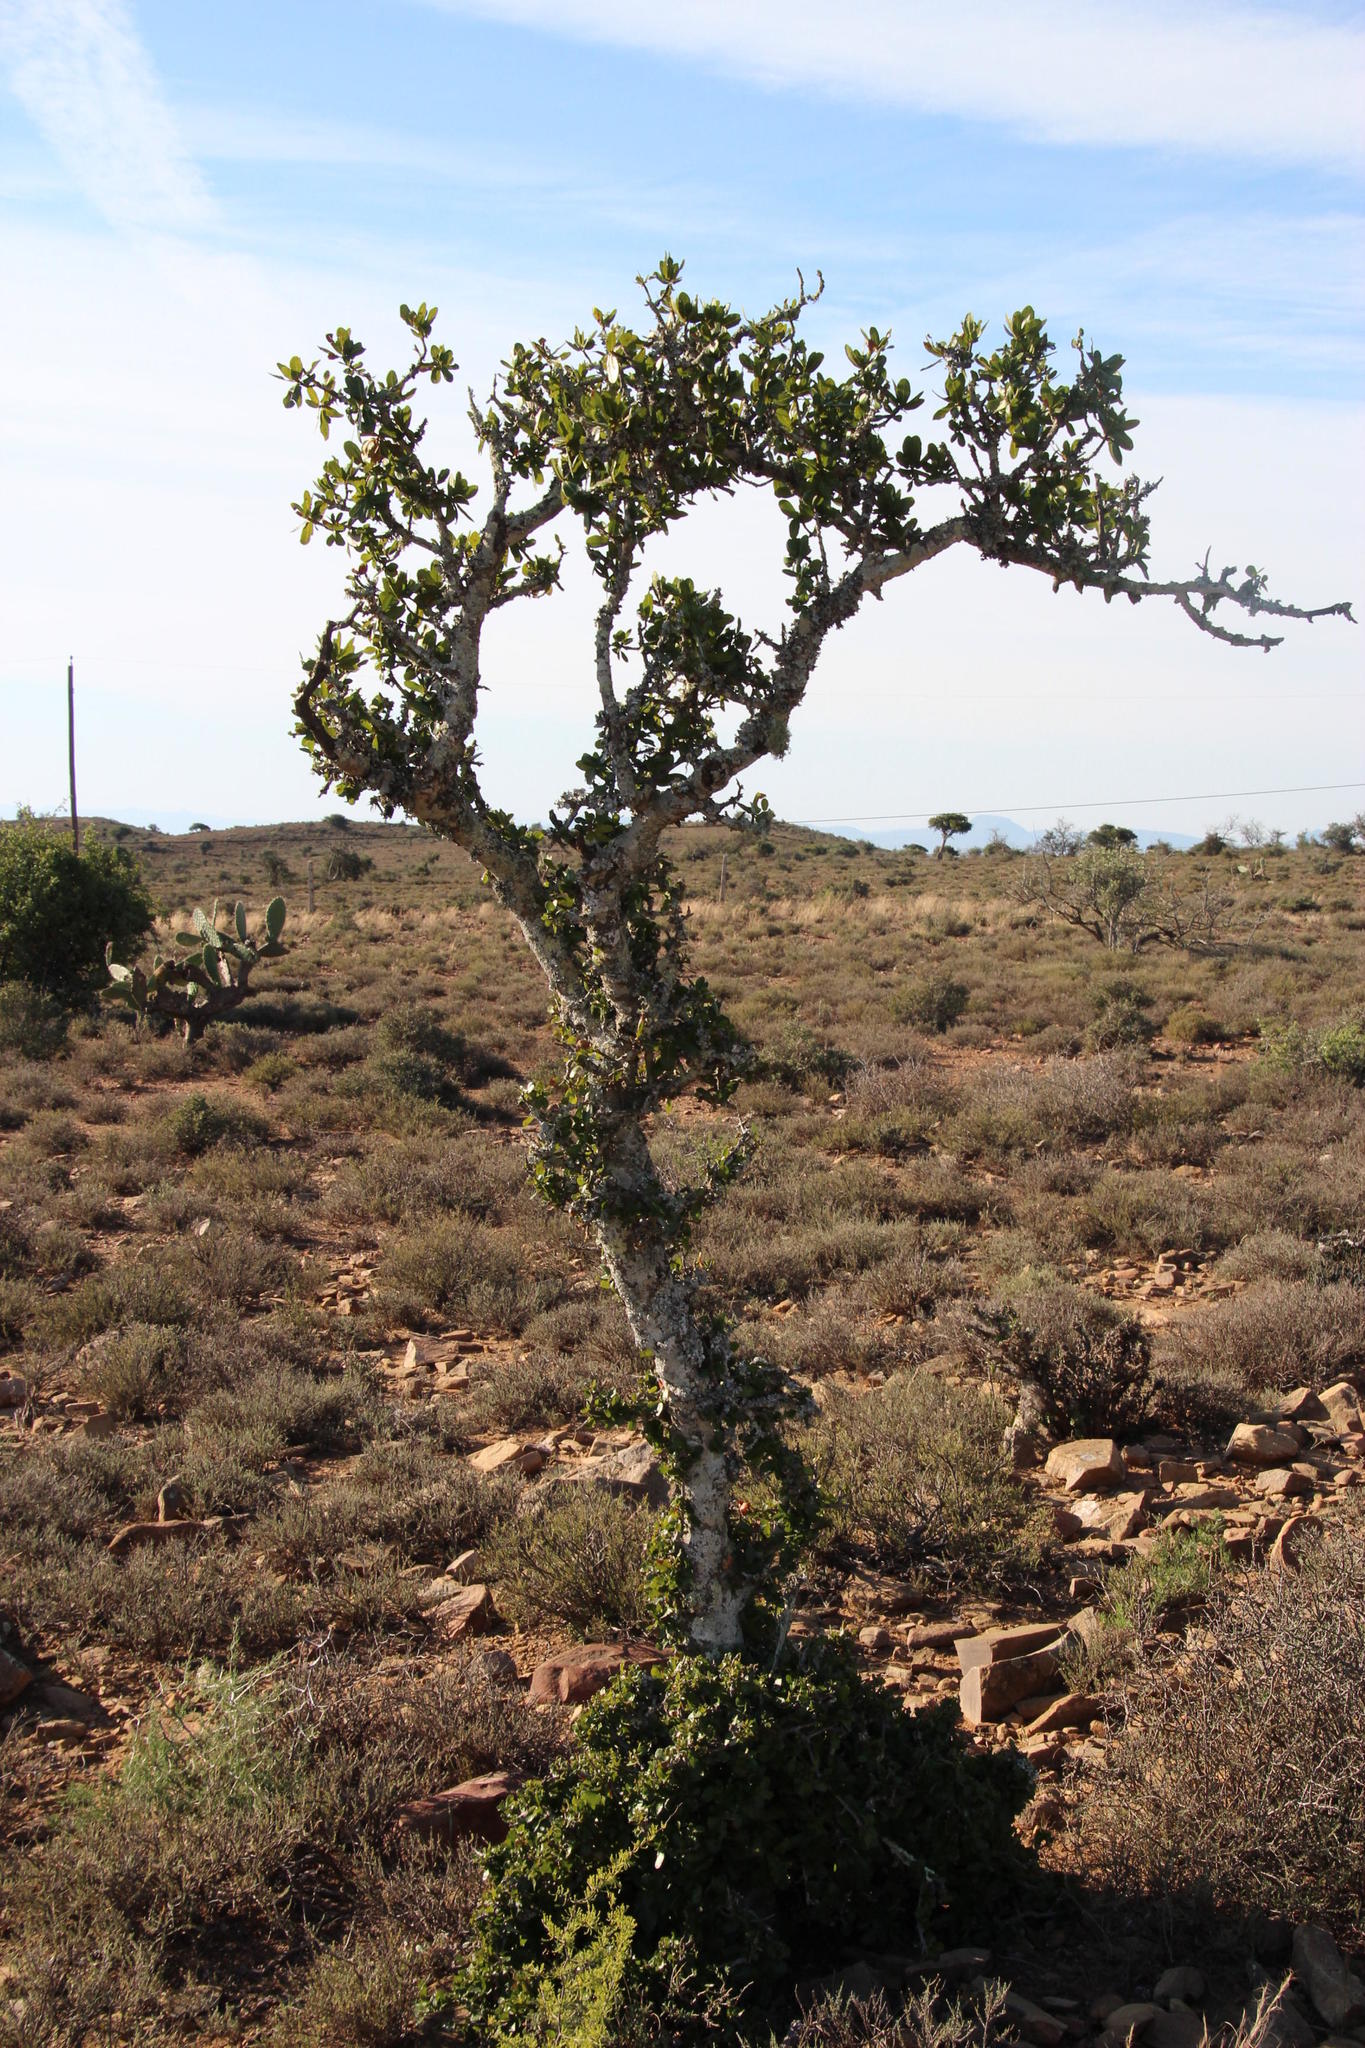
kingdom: Plantae
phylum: Tracheophyta
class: Magnoliopsida
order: Sapindales
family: Sapindaceae
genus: Pappea
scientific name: Pappea capensis
